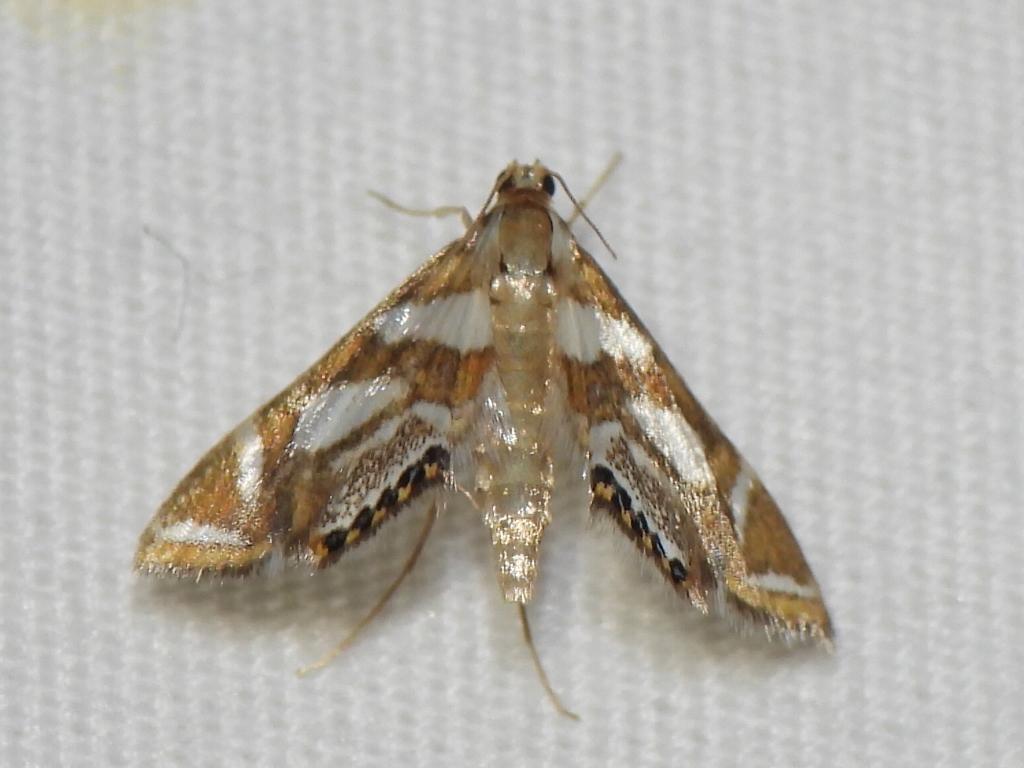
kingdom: Animalia
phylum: Arthropoda
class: Insecta
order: Lepidoptera
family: Crambidae
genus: Chrysendeton
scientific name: Chrysendeton medicinalis
